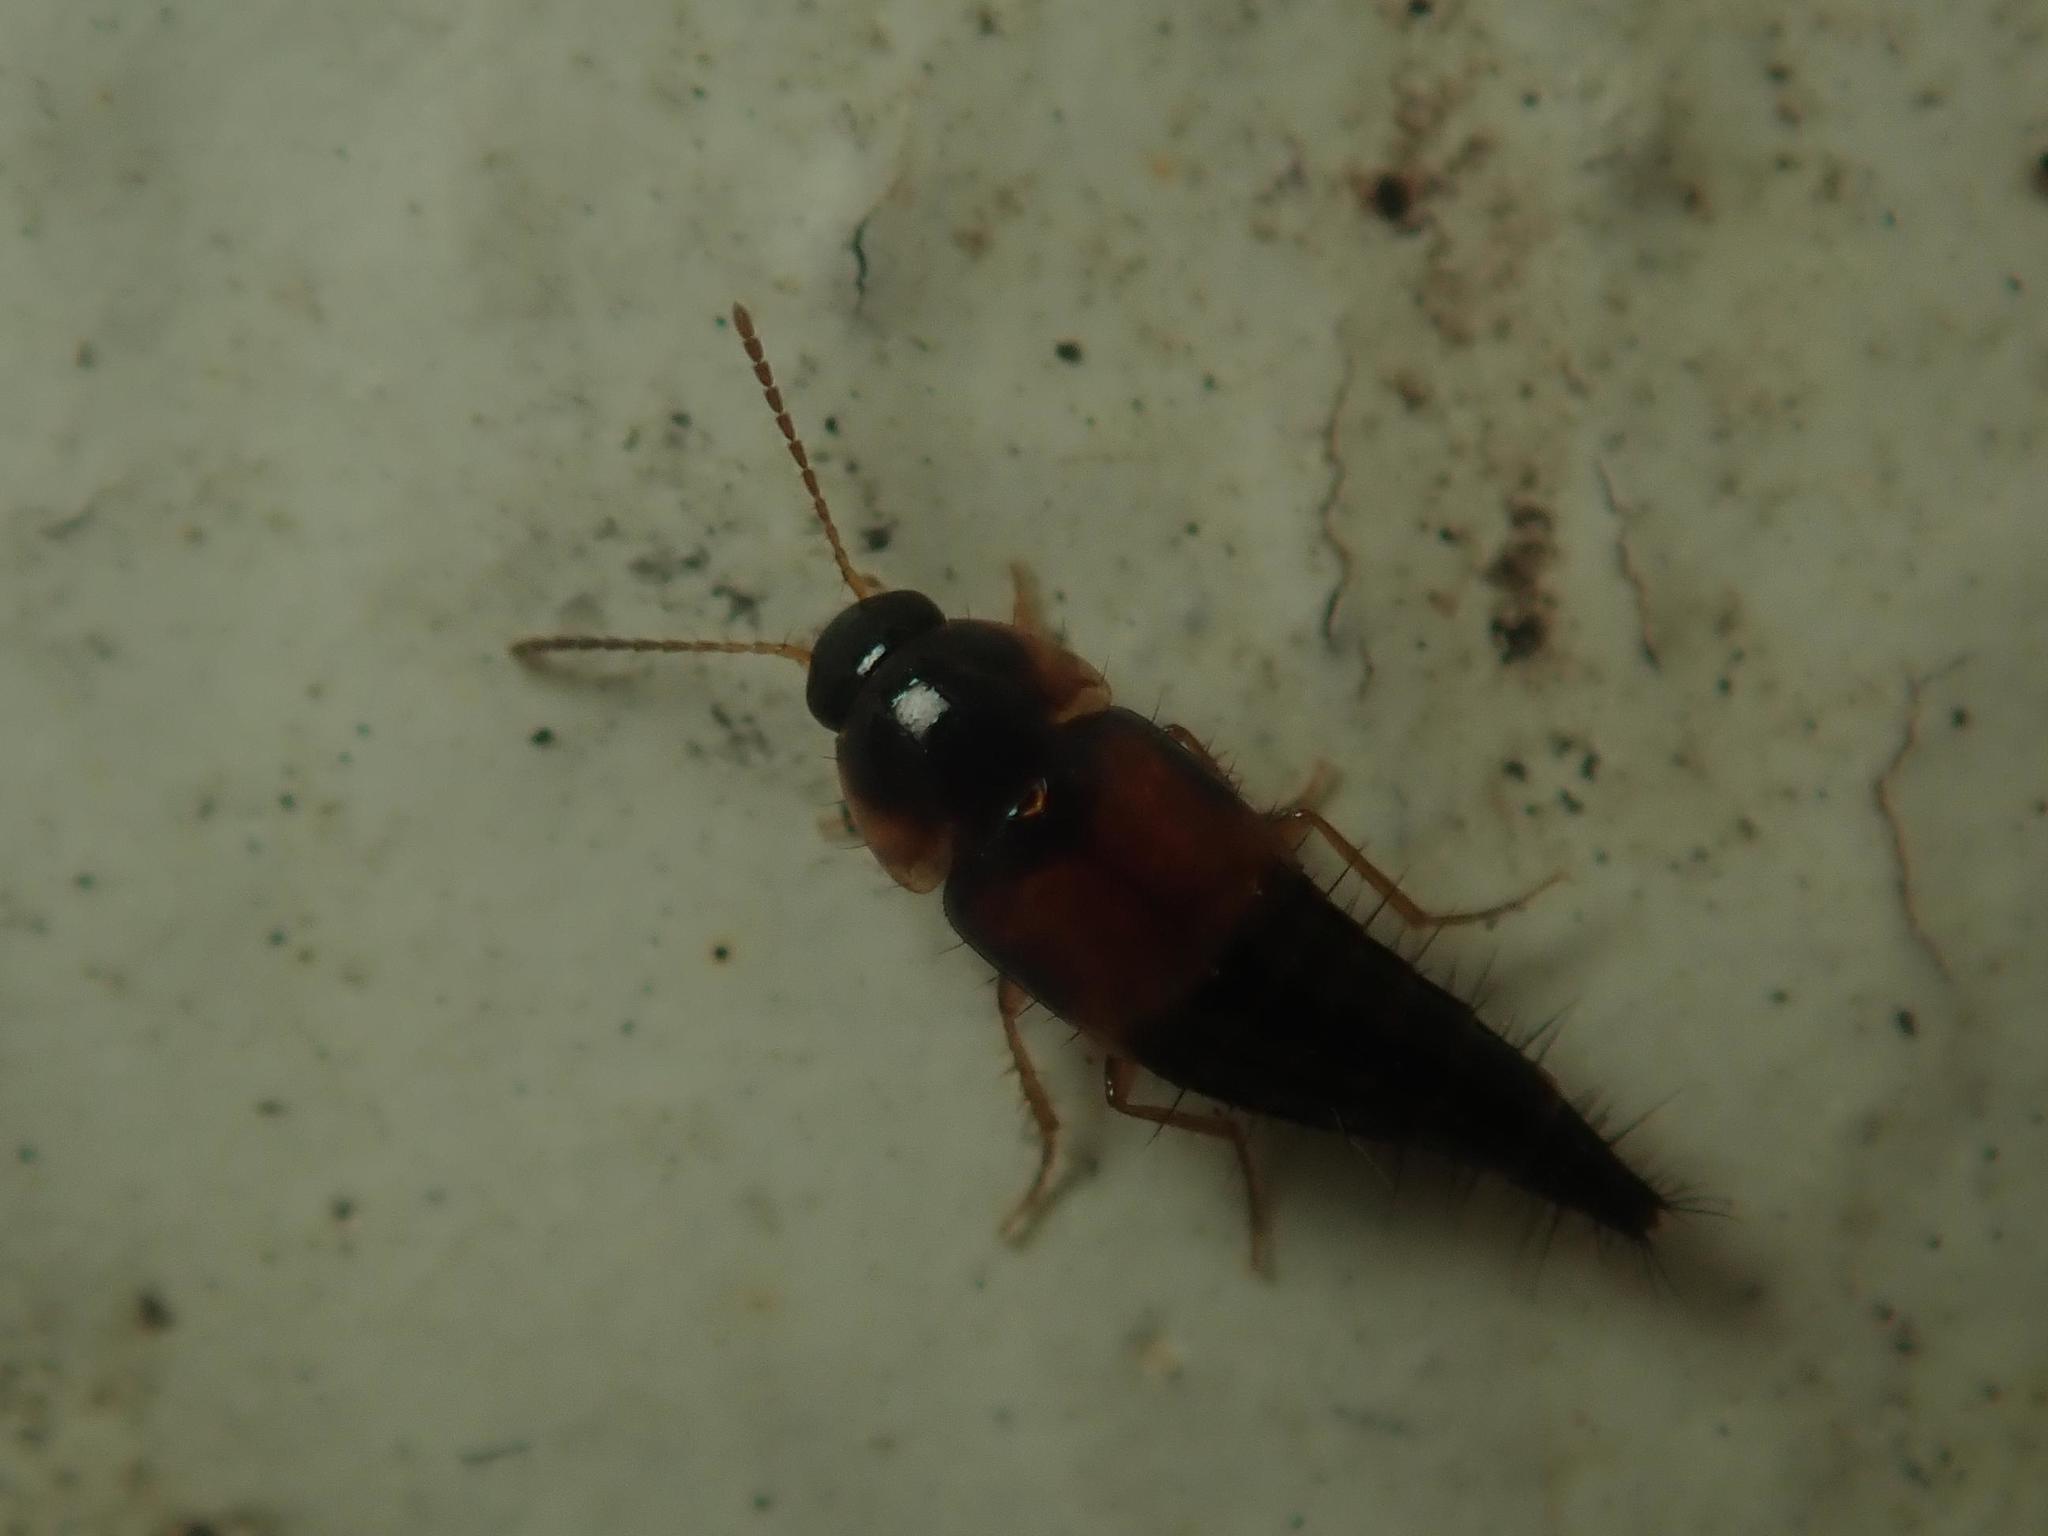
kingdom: Animalia
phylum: Arthropoda
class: Insecta
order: Coleoptera
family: Staphylinidae
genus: Tachyporus
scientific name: Tachyporus hypnorum
